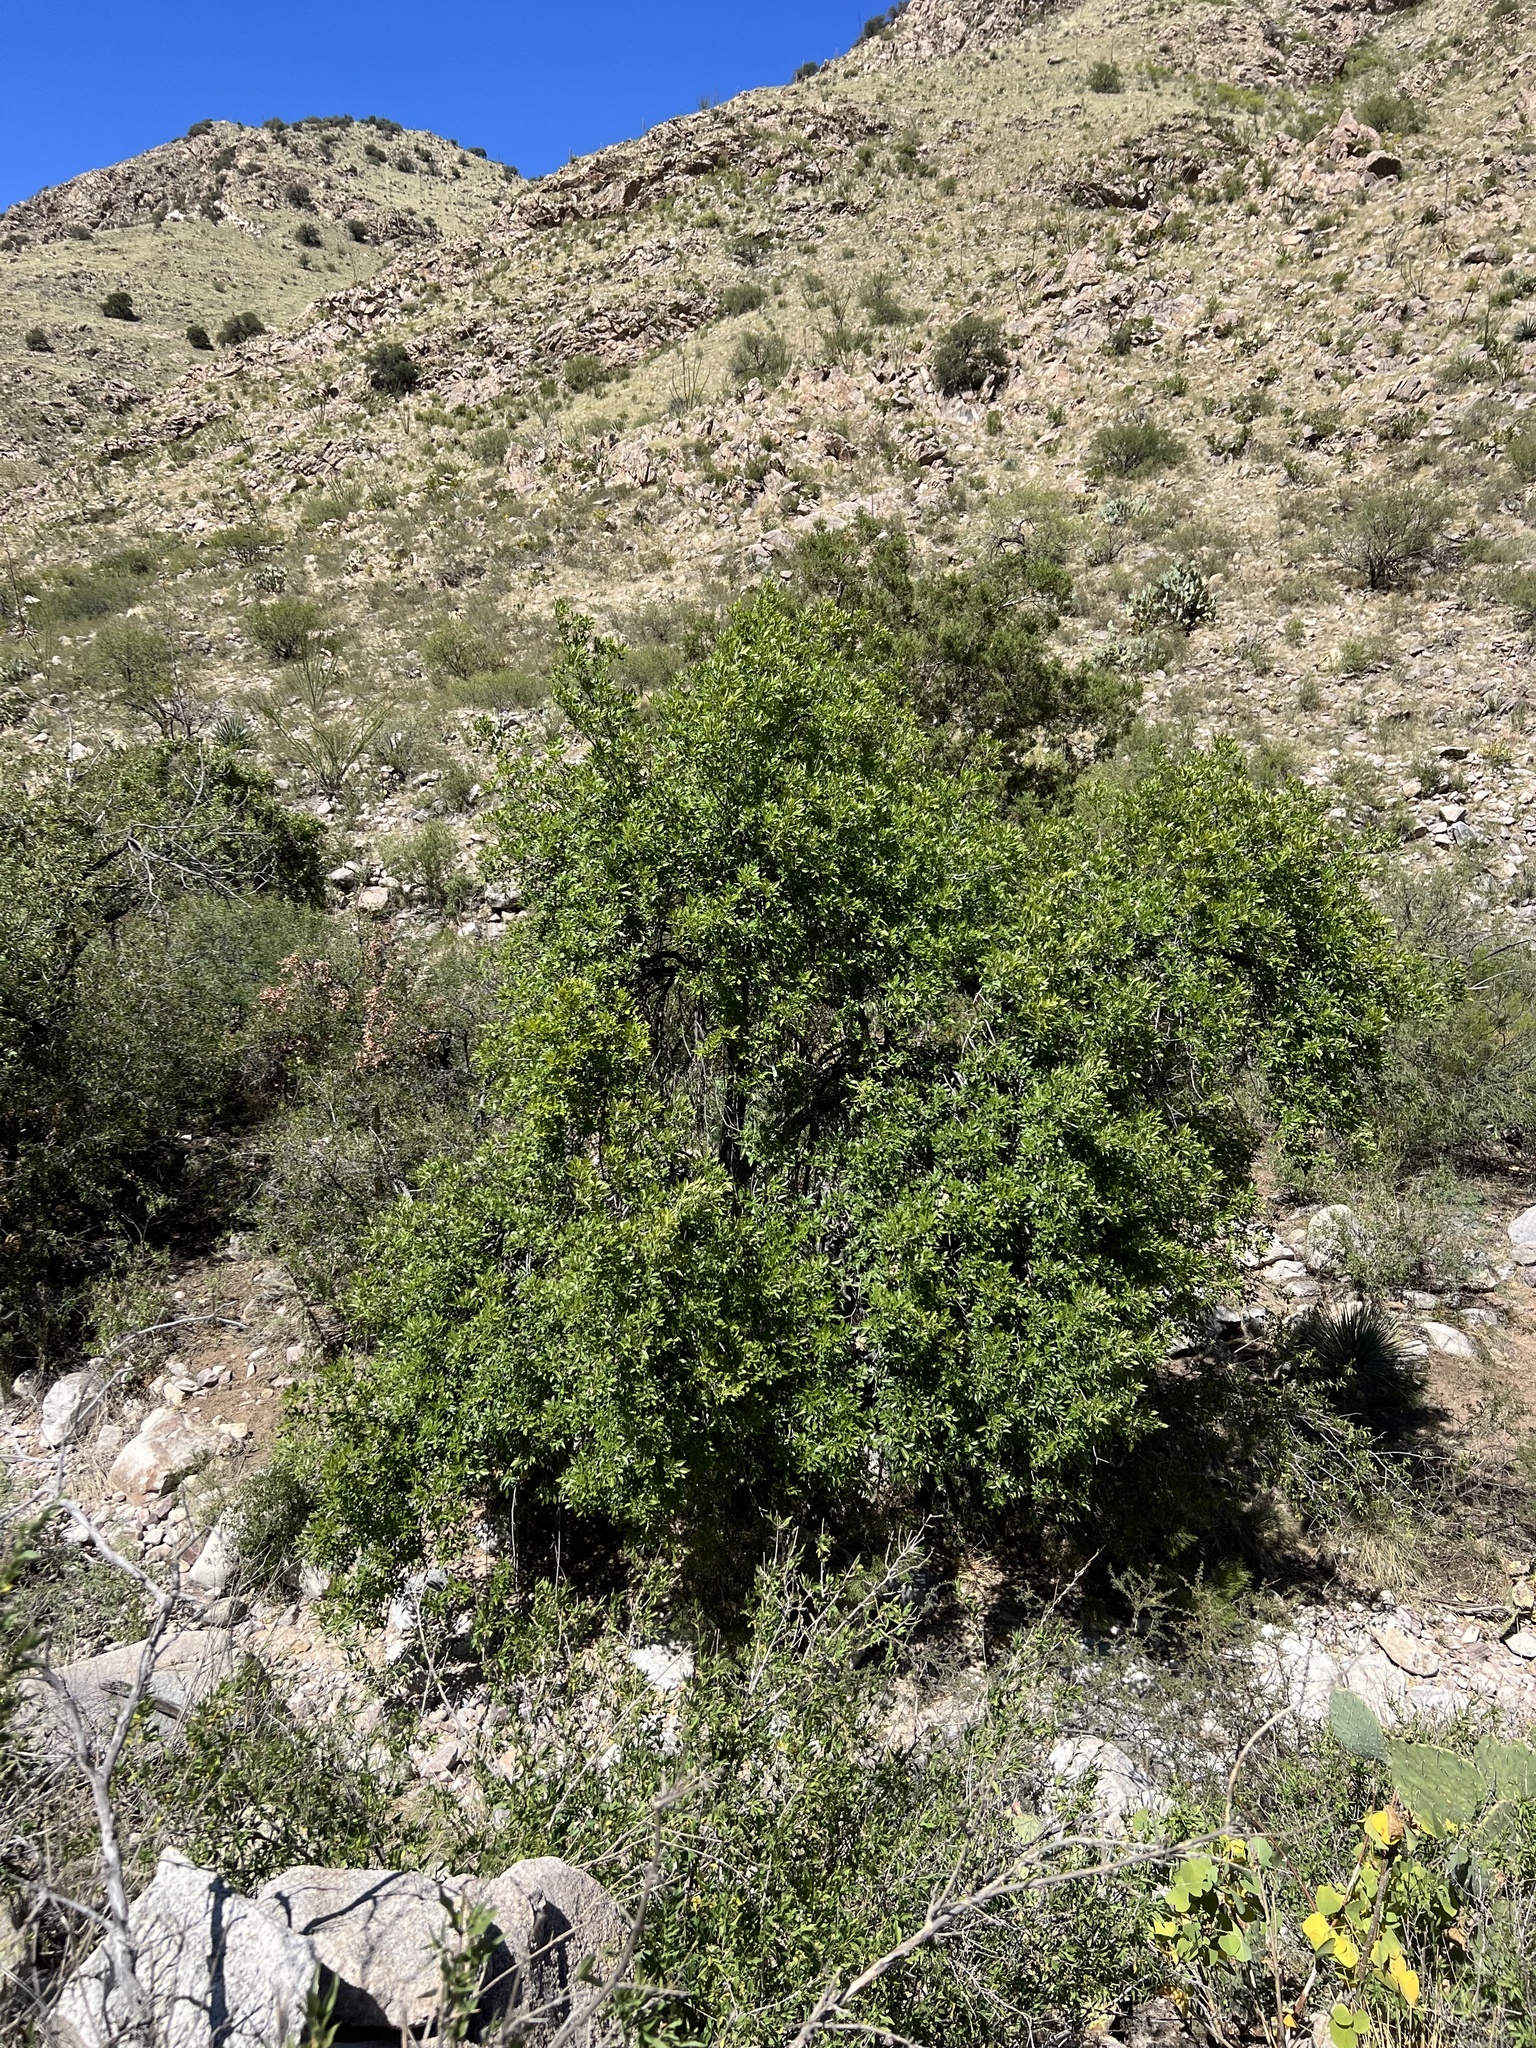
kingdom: Plantae
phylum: Tracheophyta
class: Magnoliopsida
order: Lamiales
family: Oleaceae
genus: Fraxinus
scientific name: Fraxinus velutina
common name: Arizon ash
